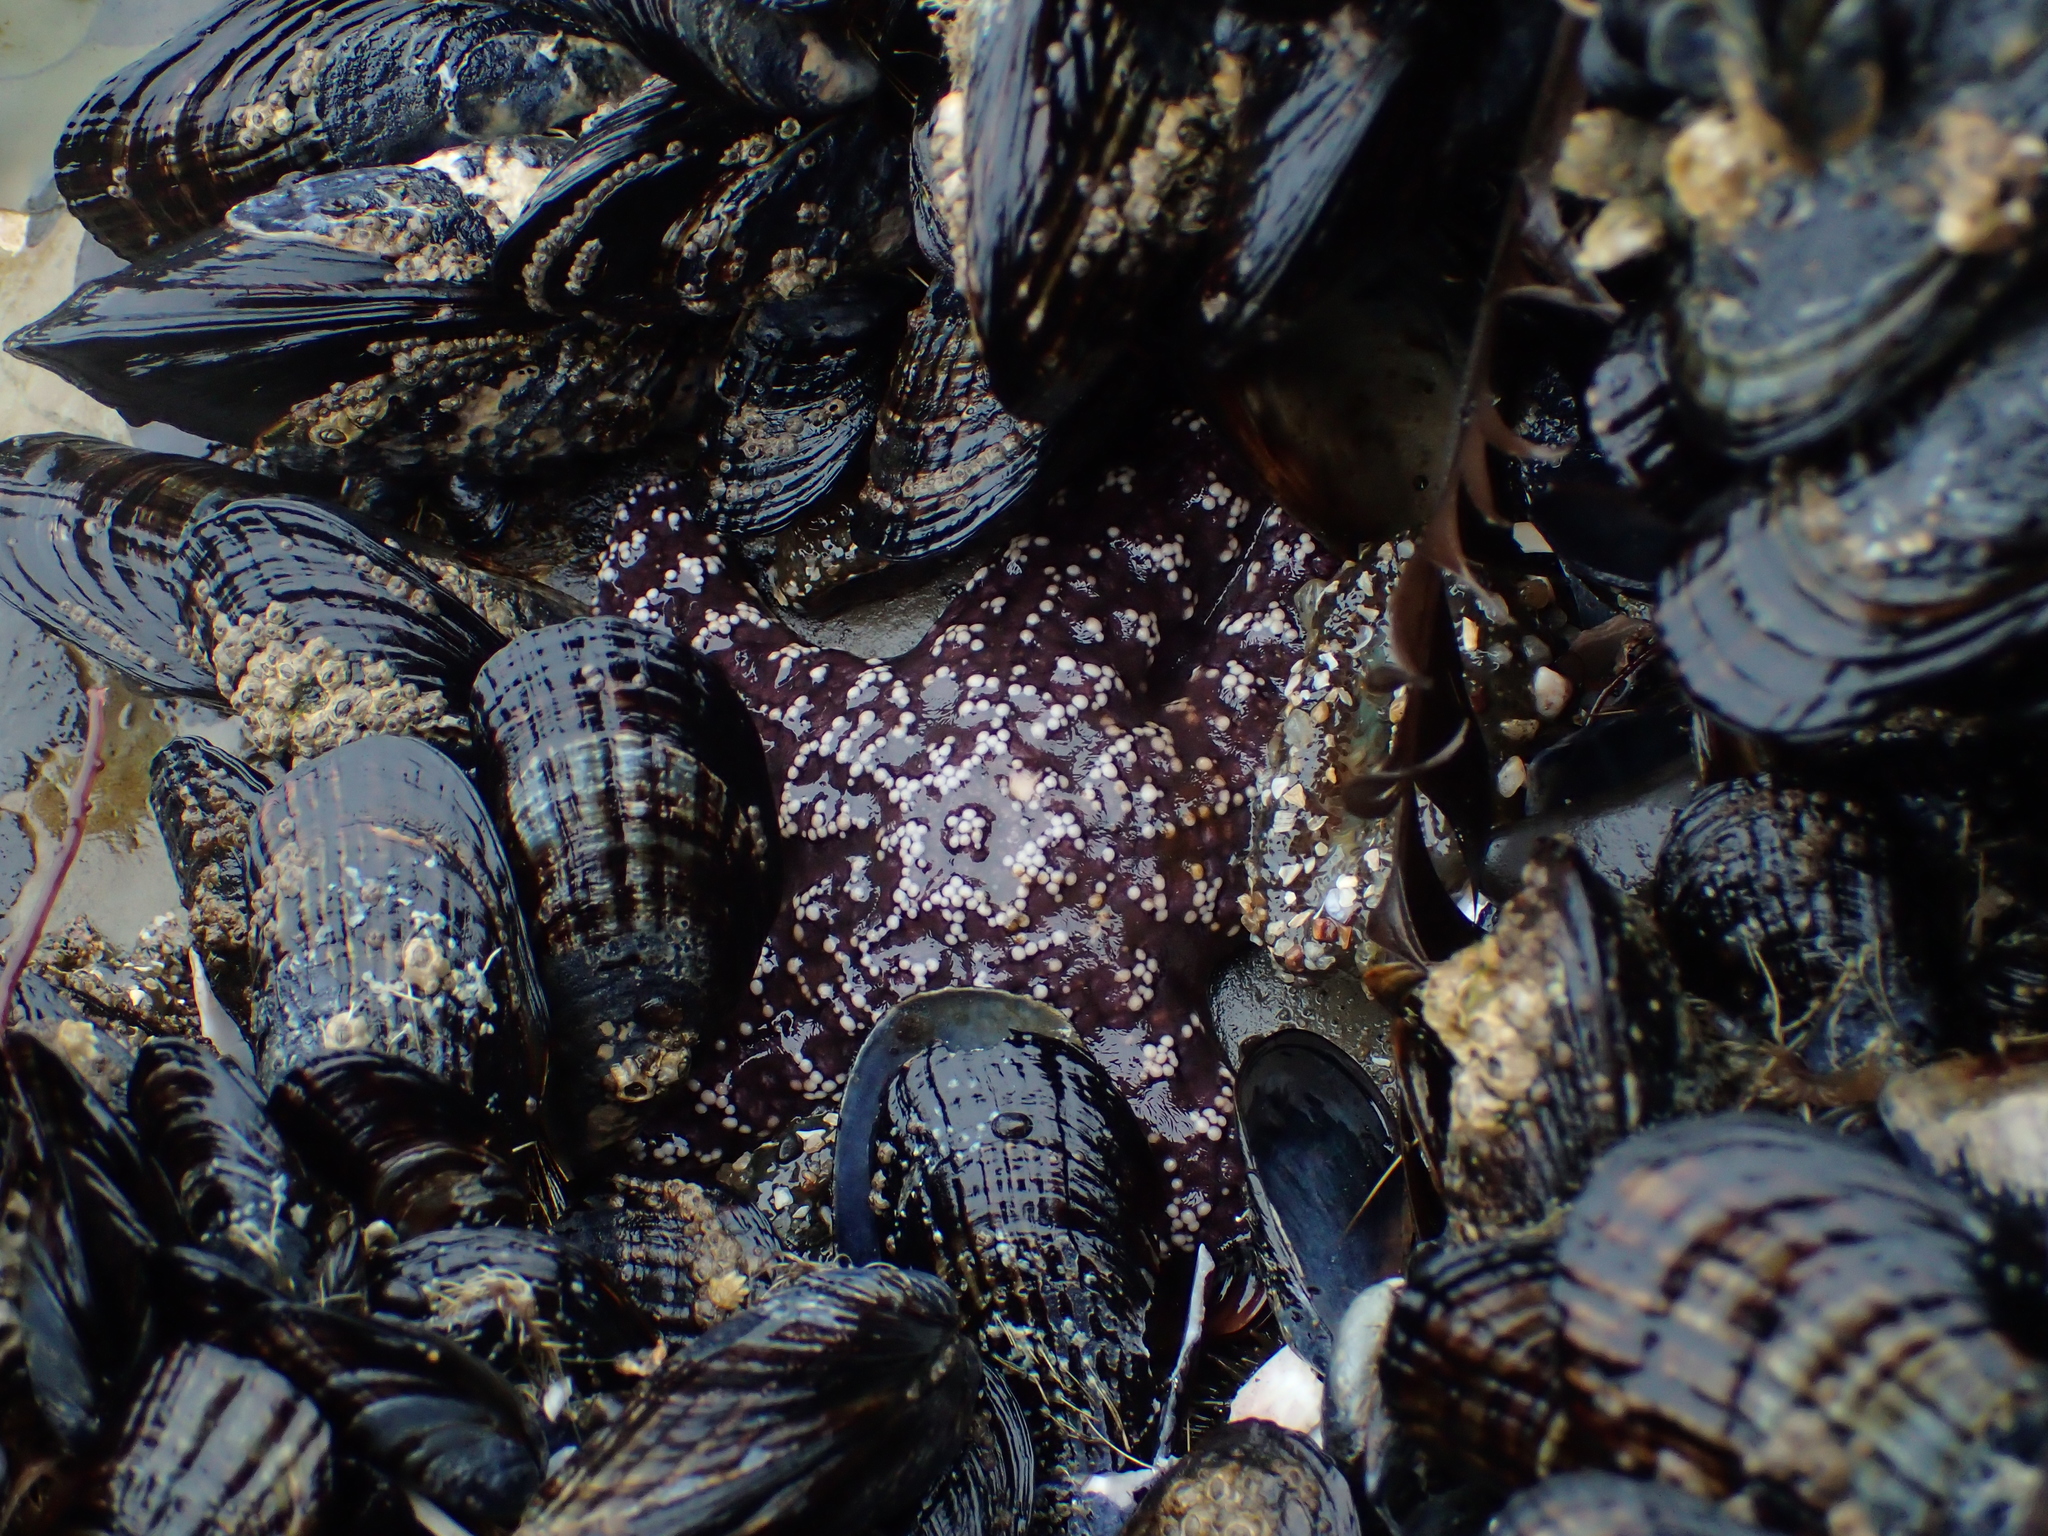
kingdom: Animalia
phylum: Echinodermata
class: Asteroidea
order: Forcipulatida
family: Asteriidae
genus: Pisaster
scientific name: Pisaster ochraceus
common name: Ochre stars
